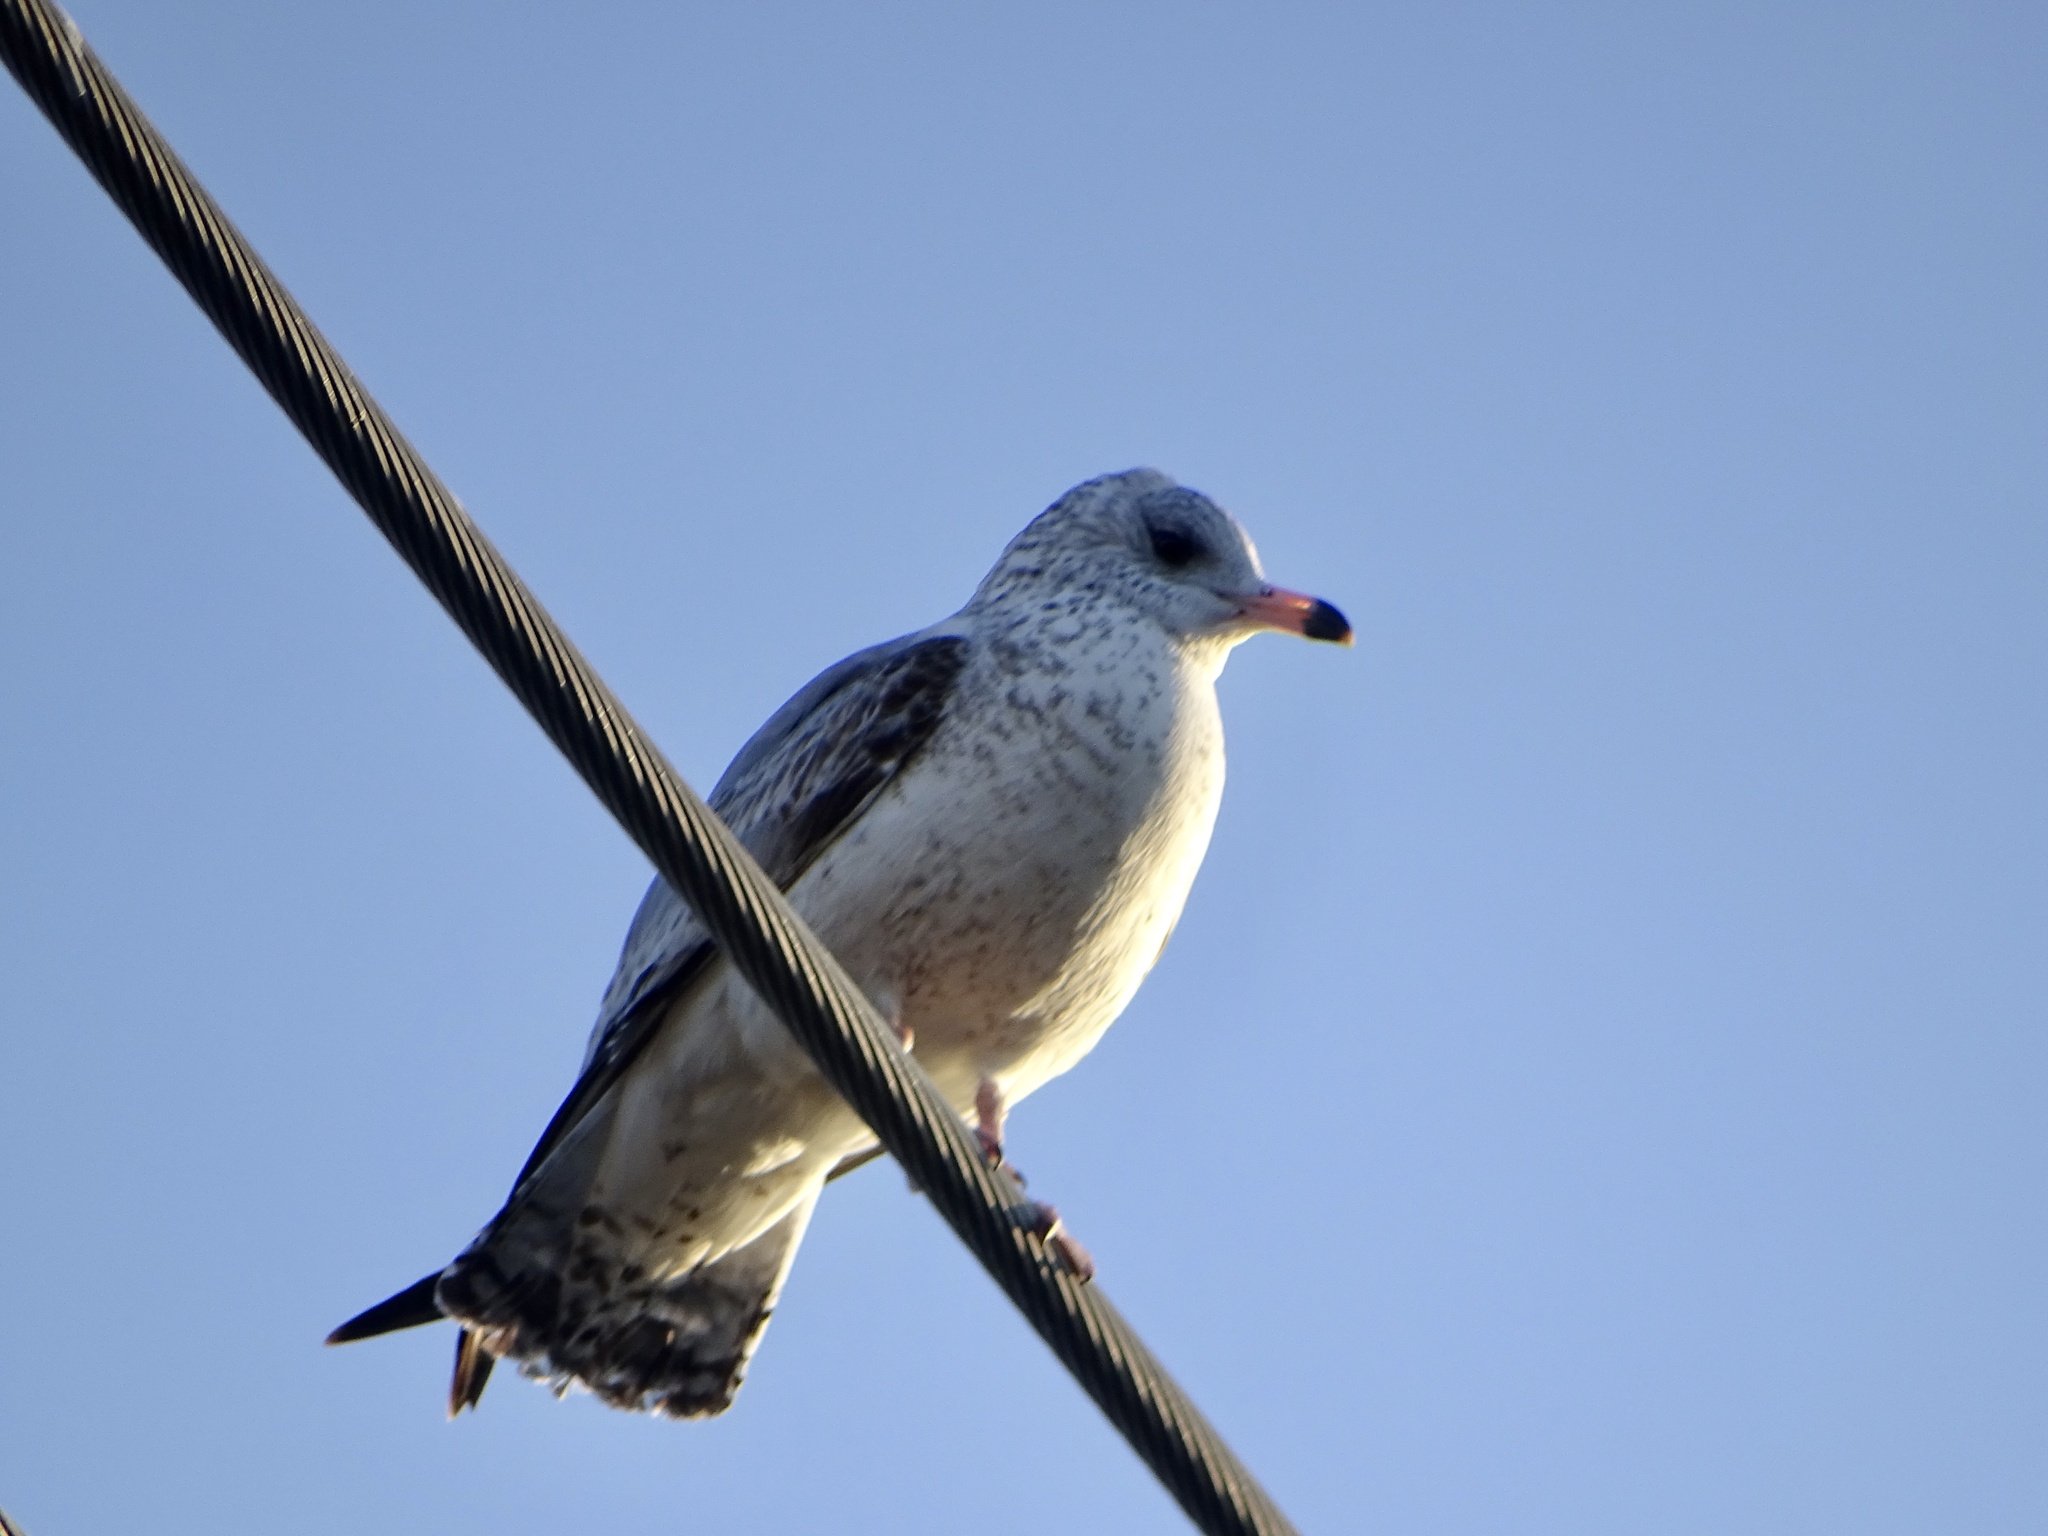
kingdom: Animalia
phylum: Chordata
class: Aves
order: Charadriiformes
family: Laridae
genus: Larus
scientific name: Larus delawarensis
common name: Ring-billed gull
